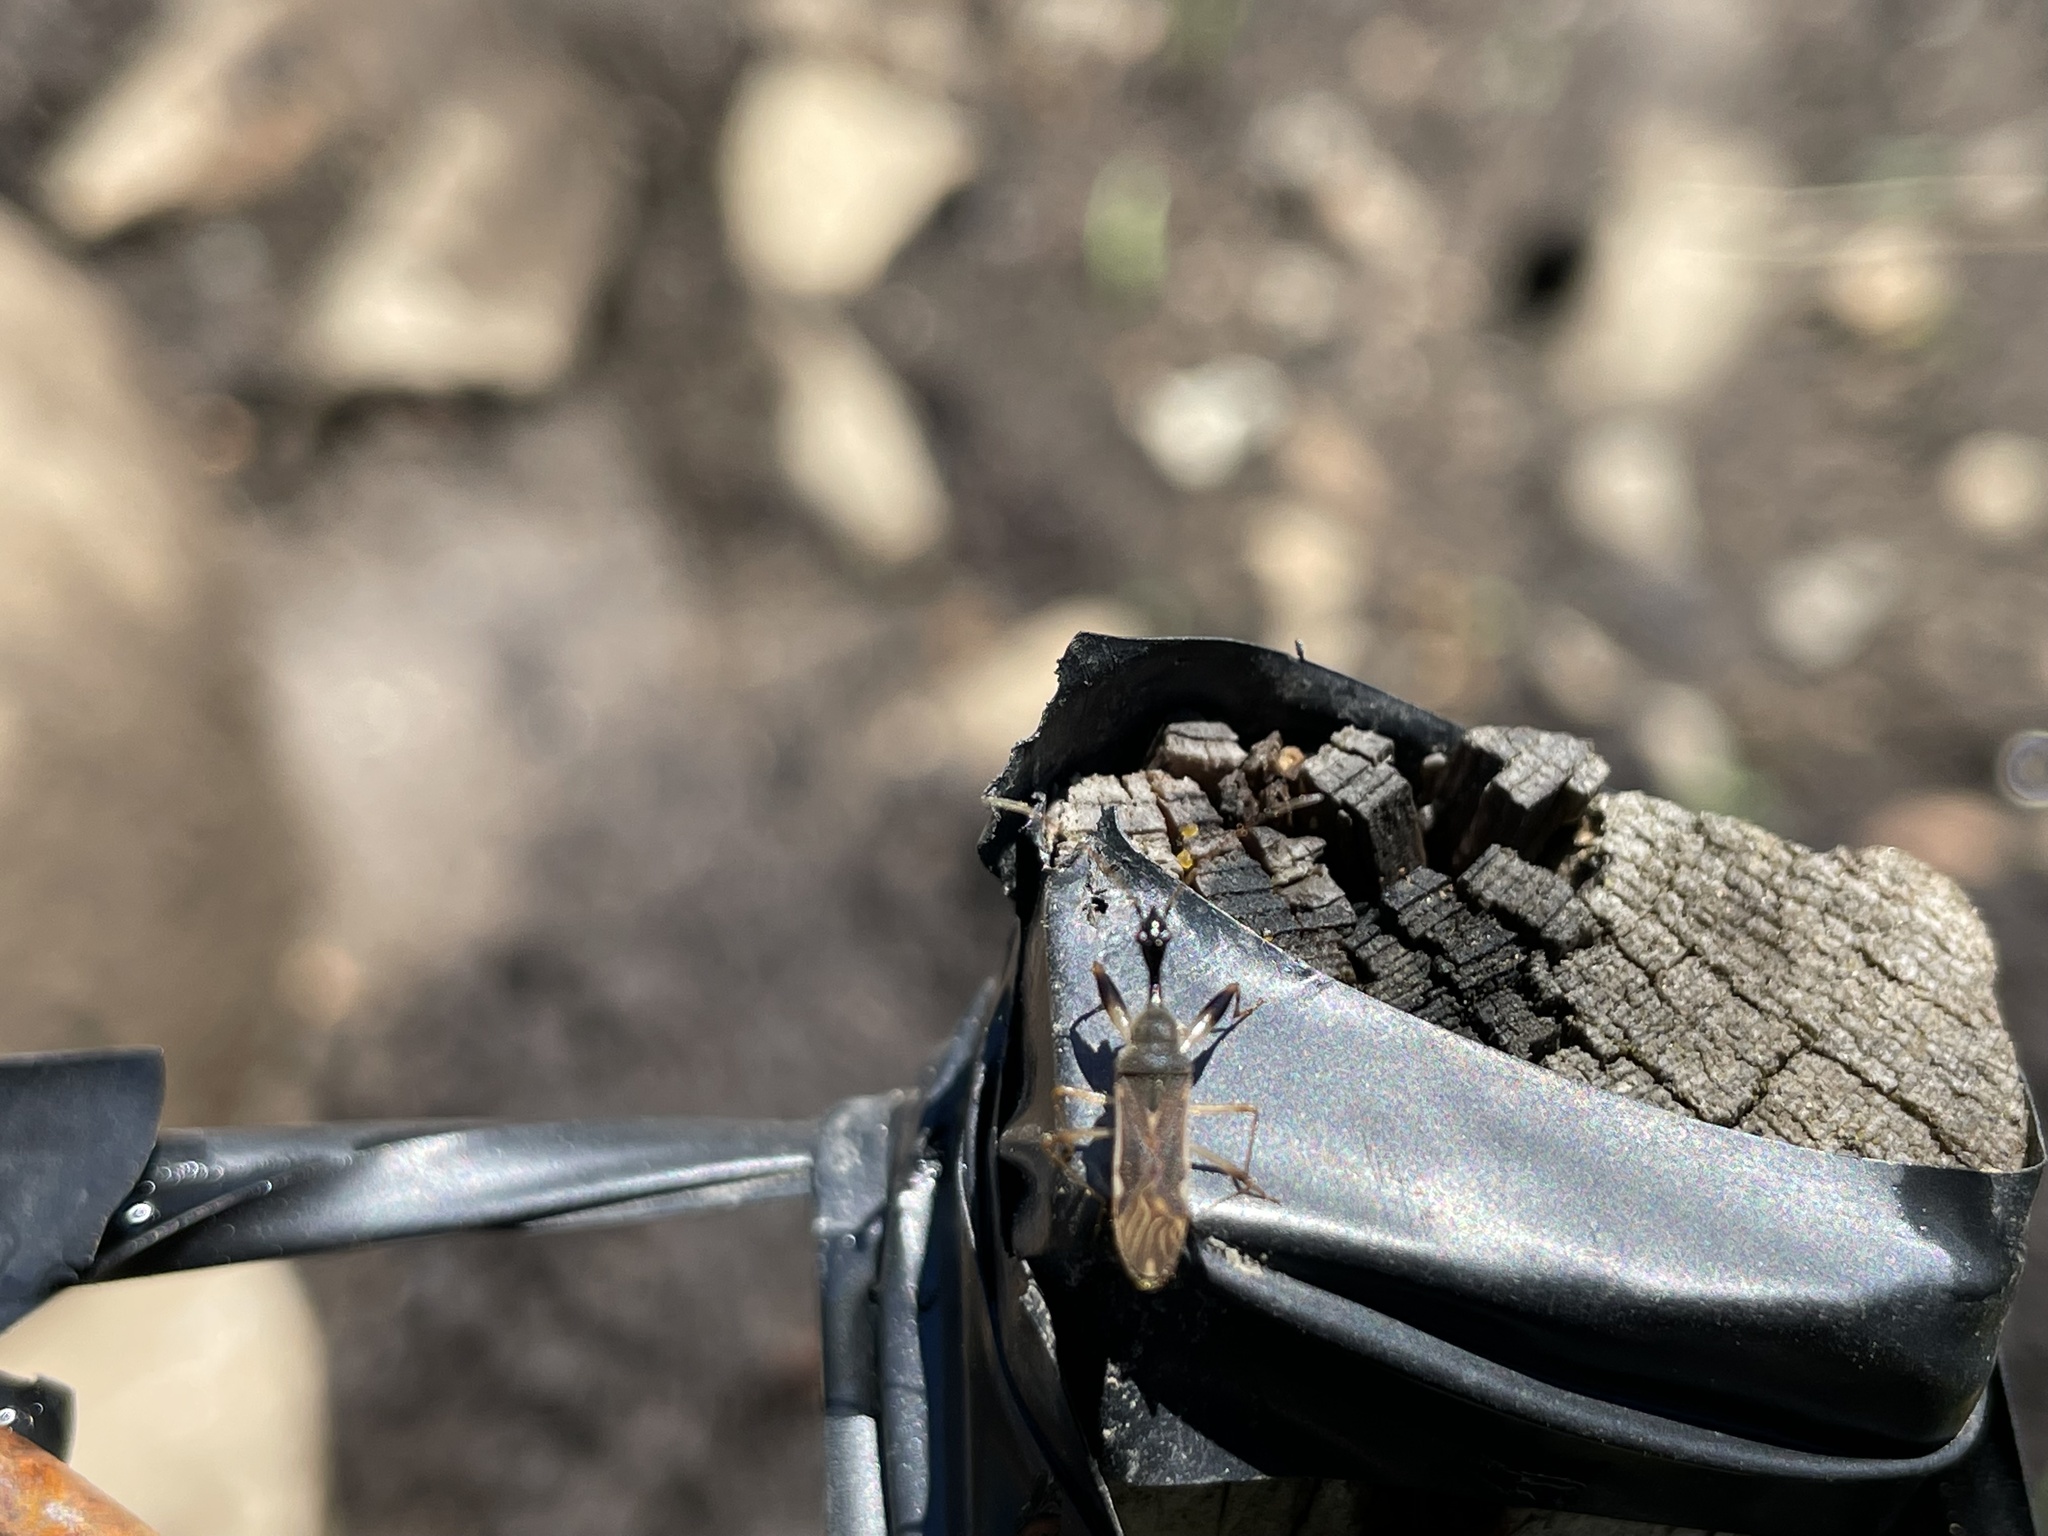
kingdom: Animalia
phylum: Arthropoda
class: Insecta
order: Hemiptera
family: Rhyparochromidae
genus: Myodocha
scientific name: Myodocha serripes
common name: Long-necked seed bug
